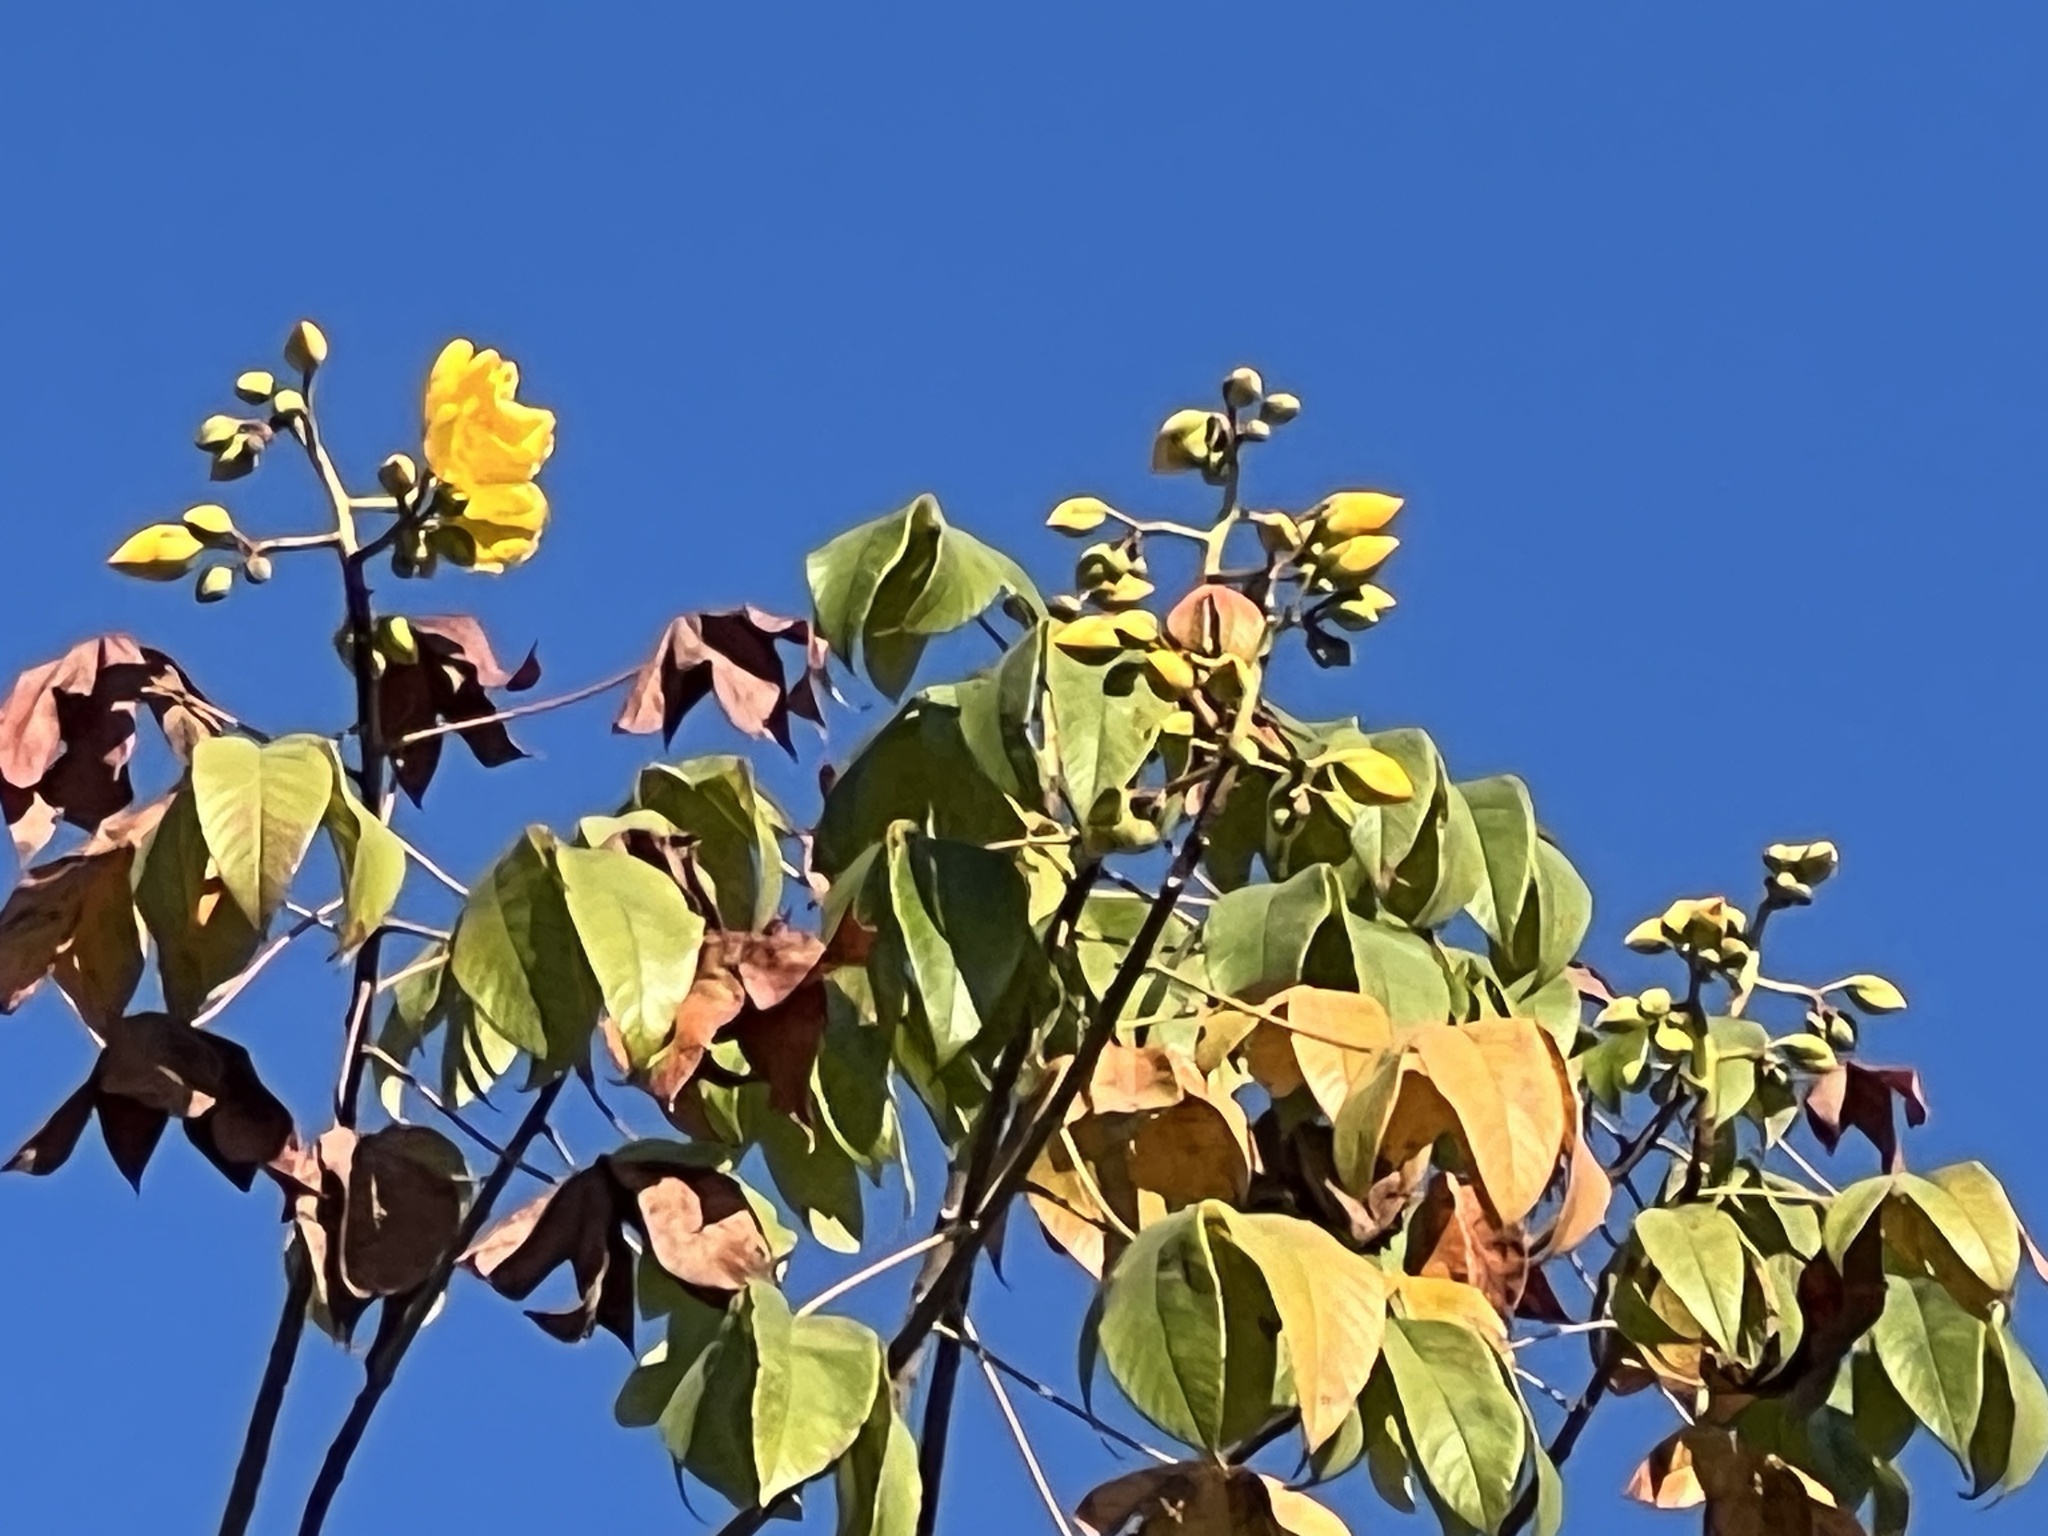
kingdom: Plantae
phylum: Tracheophyta
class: Magnoliopsida
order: Malvales
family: Cochlospermaceae
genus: Cochlospermum
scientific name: Cochlospermum vitifolium
